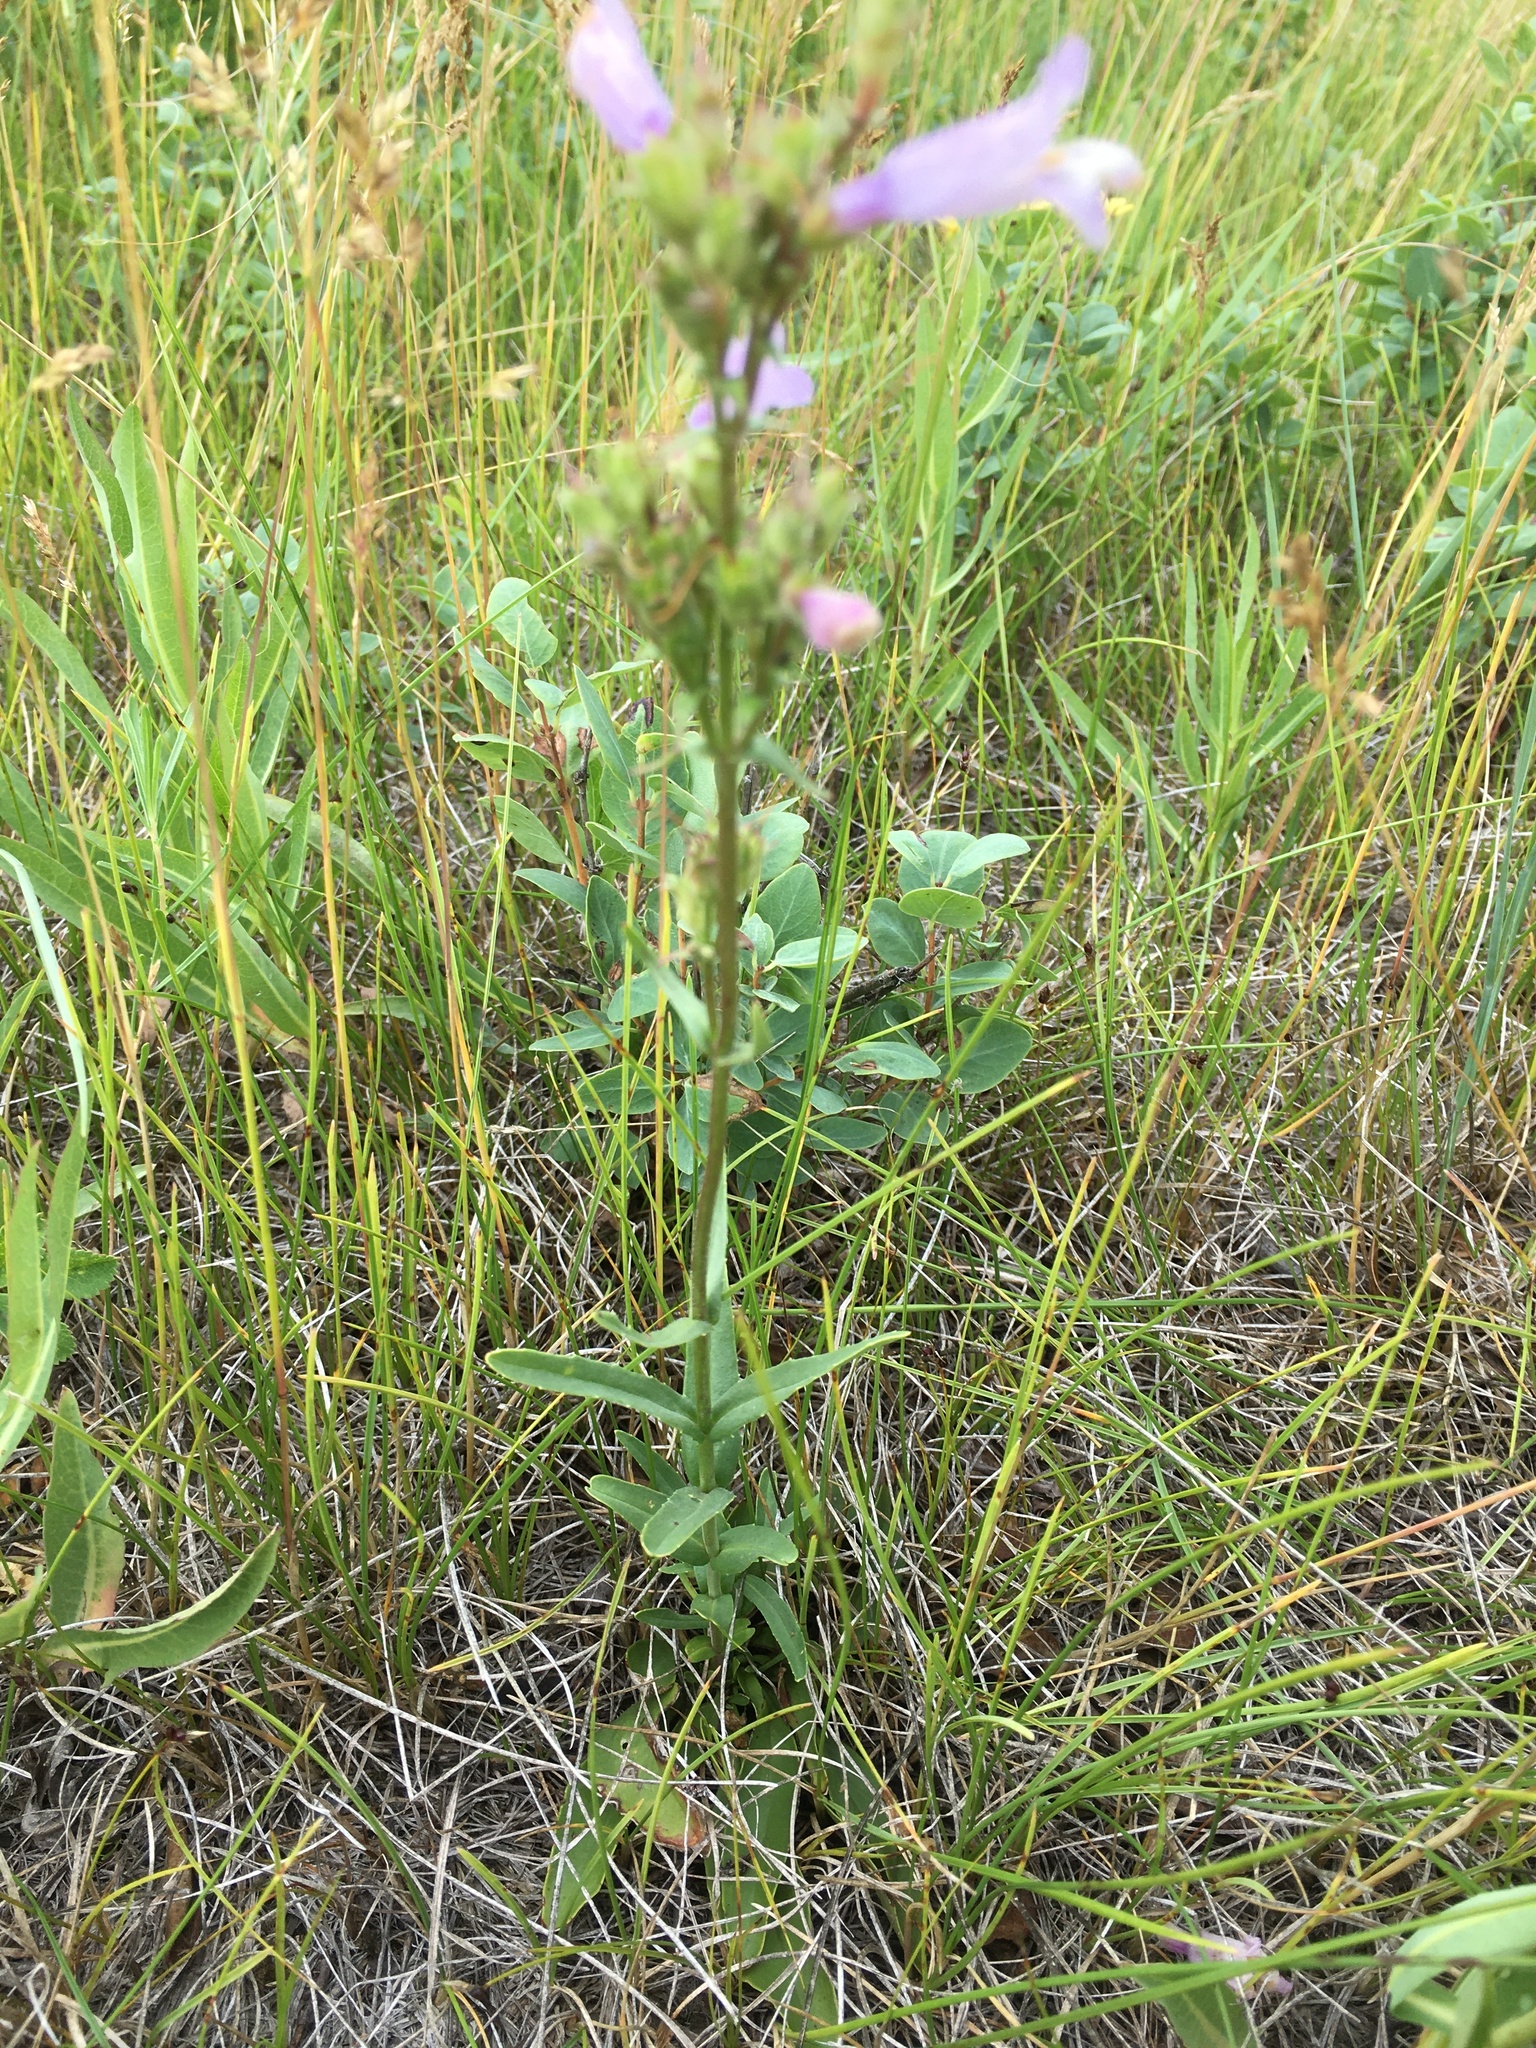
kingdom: Plantae
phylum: Tracheophyta
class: Magnoliopsida
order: Lamiales
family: Plantaginaceae
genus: Penstemon
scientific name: Penstemon gracilis
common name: Slender beardtongue
